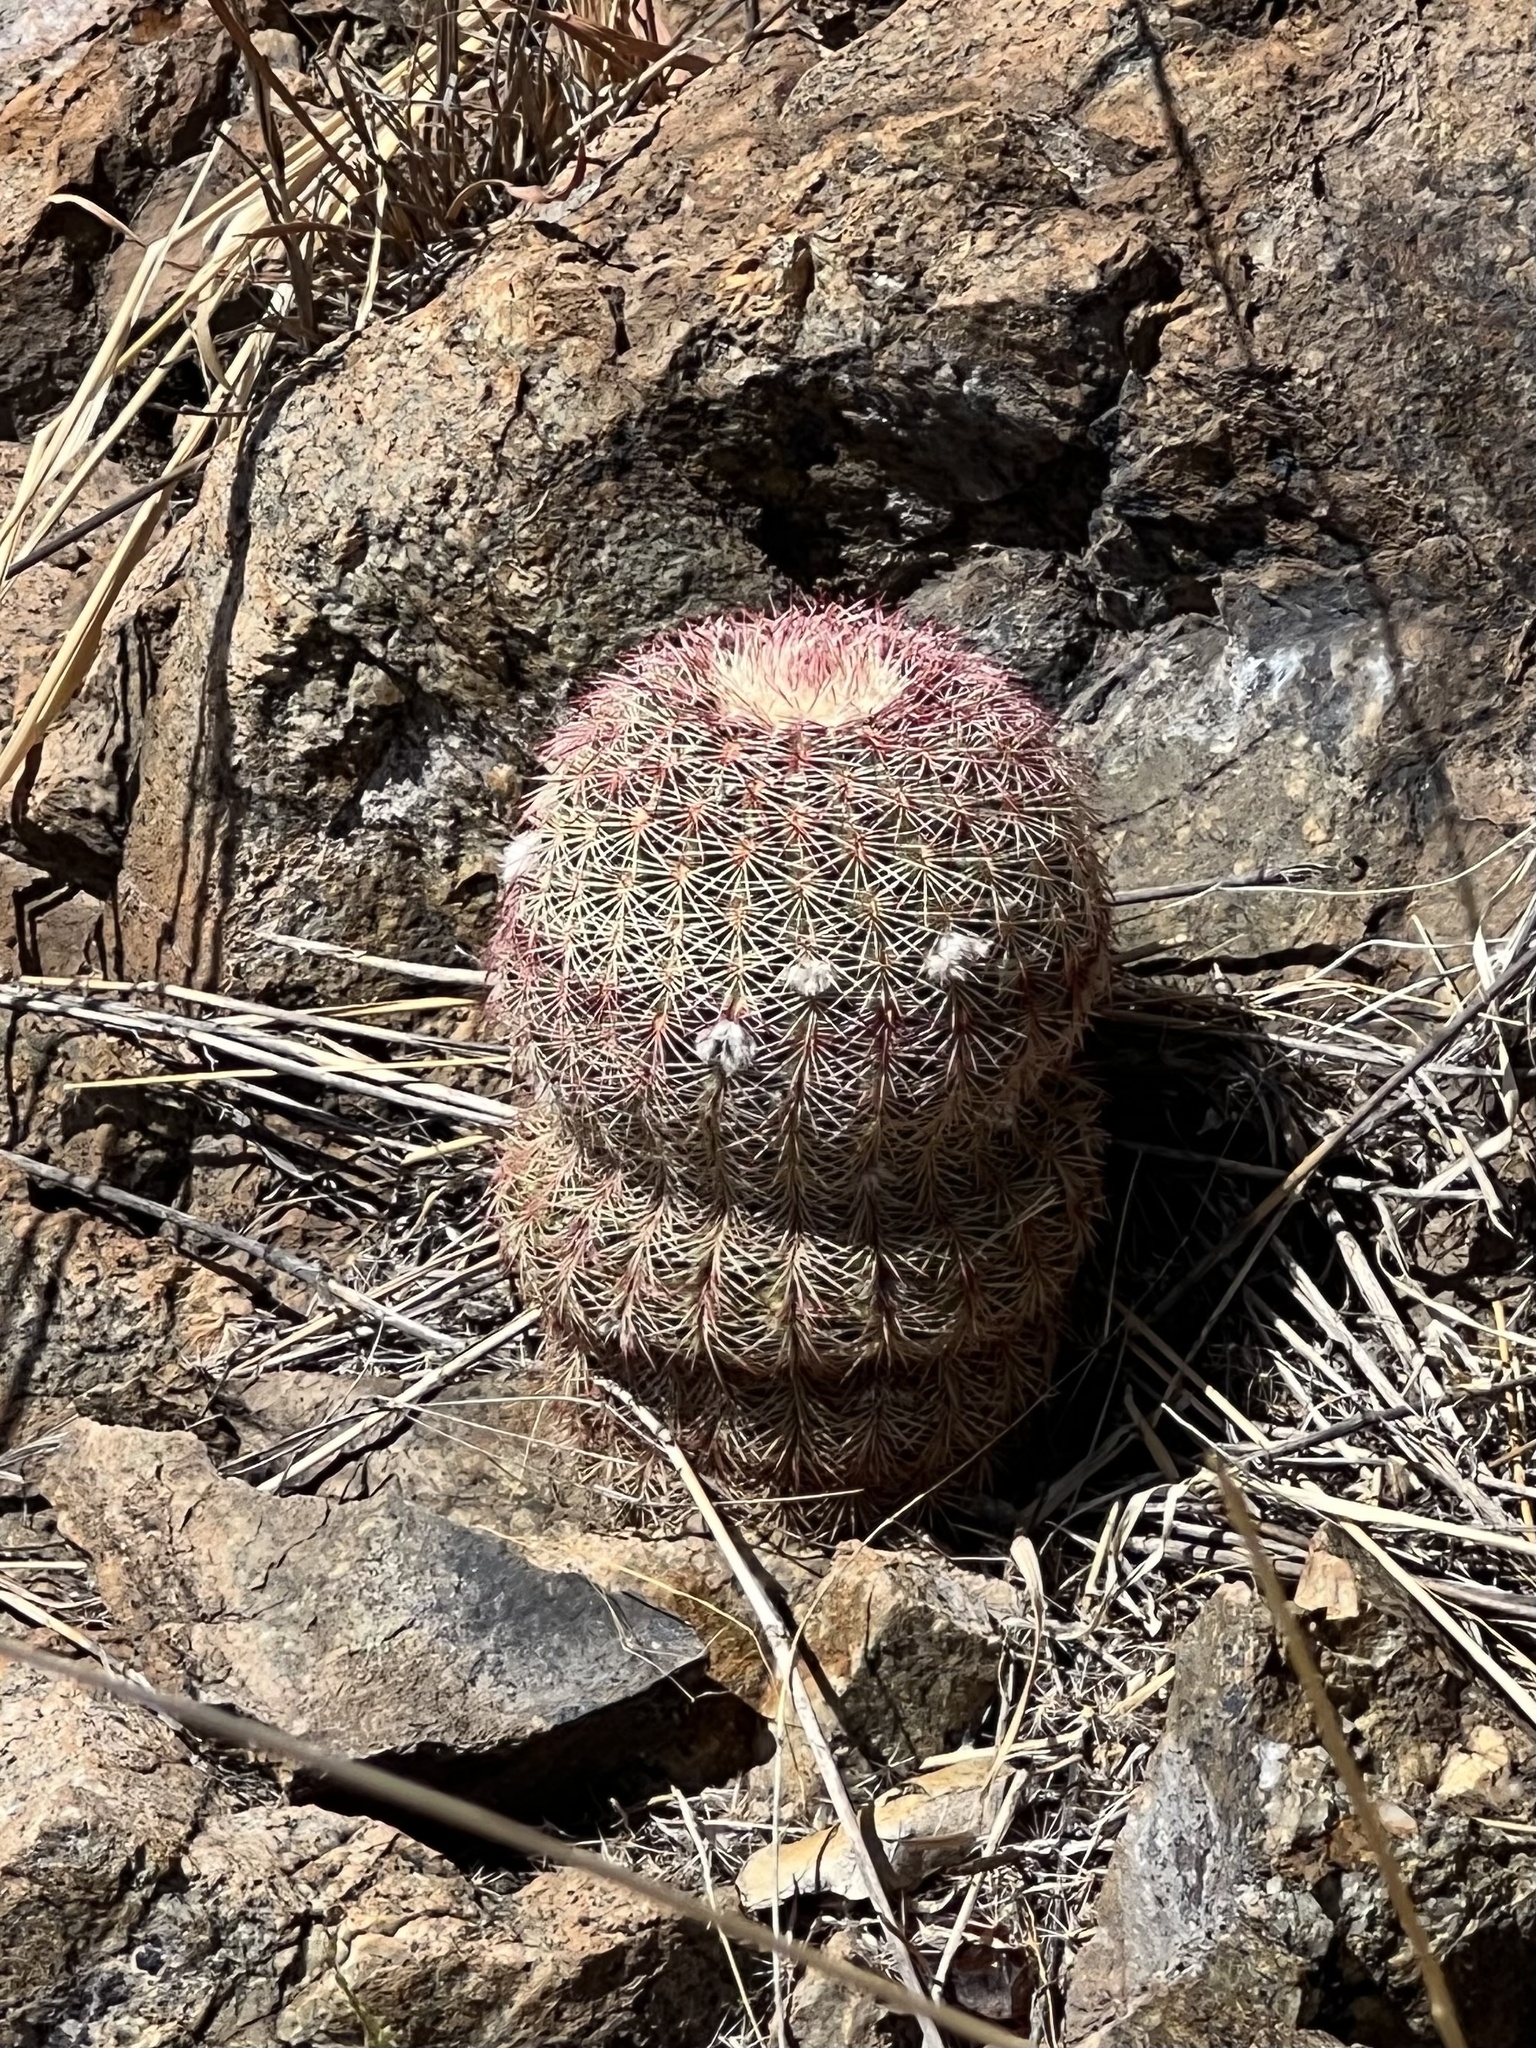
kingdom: Plantae
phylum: Tracheophyta
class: Magnoliopsida
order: Caryophyllales
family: Cactaceae
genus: Echinocereus
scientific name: Echinocereus rigidissimus
